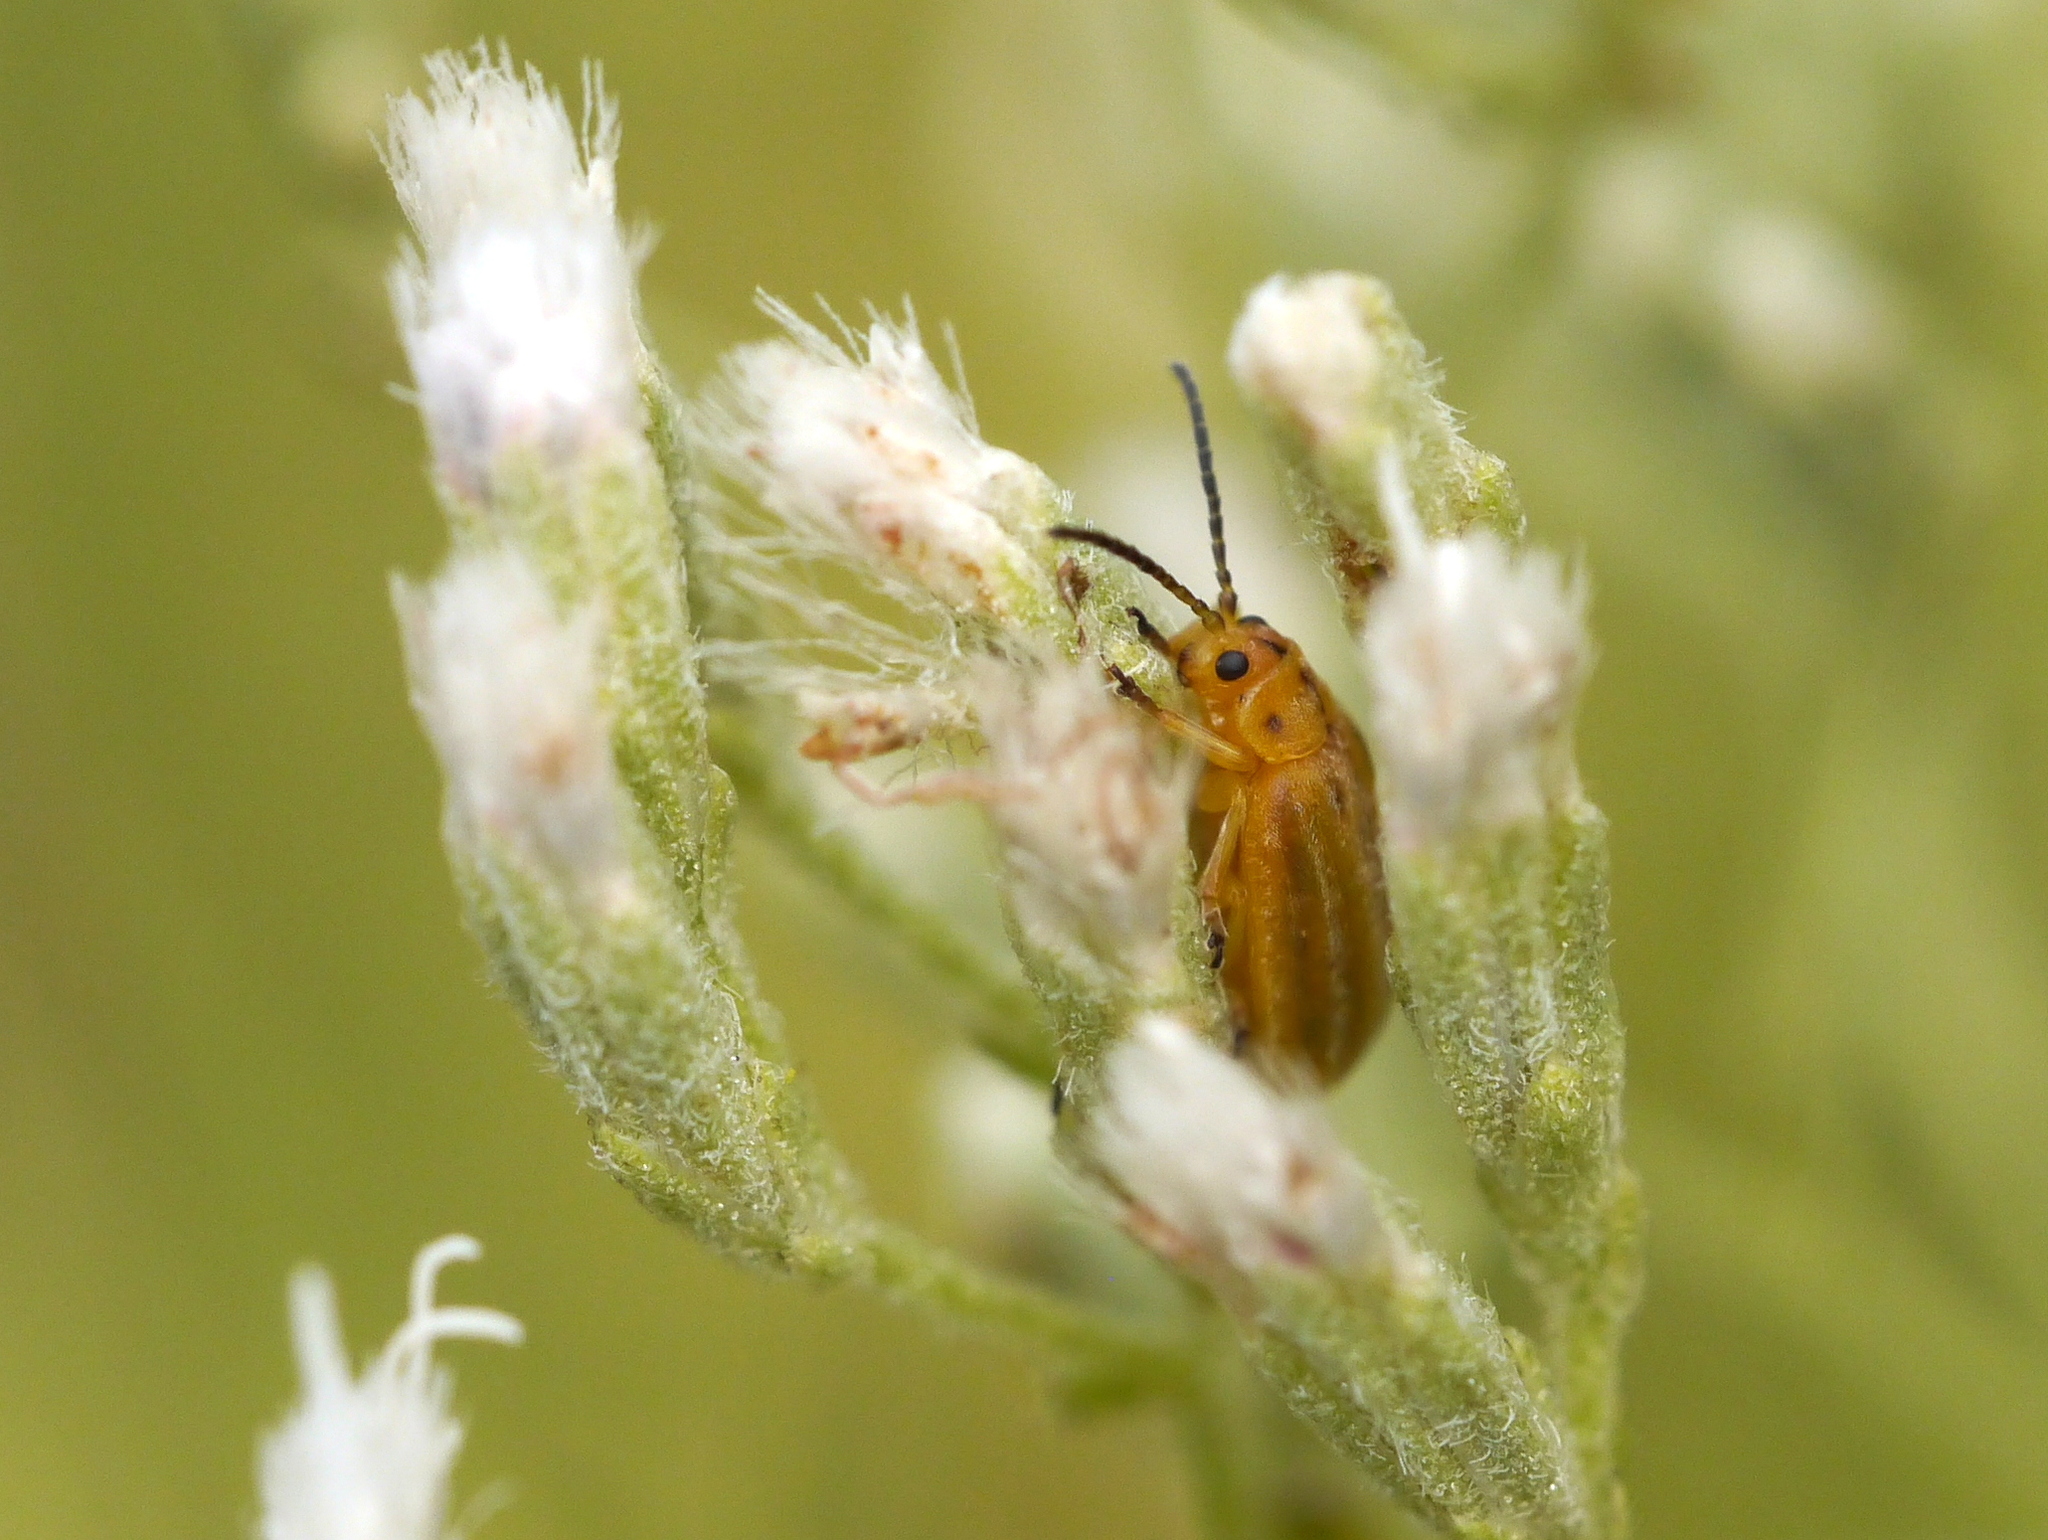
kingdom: Animalia
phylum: Arthropoda
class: Insecta
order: Coleoptera
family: Chrysomelidae
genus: Ophraella
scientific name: Ophraella notata
